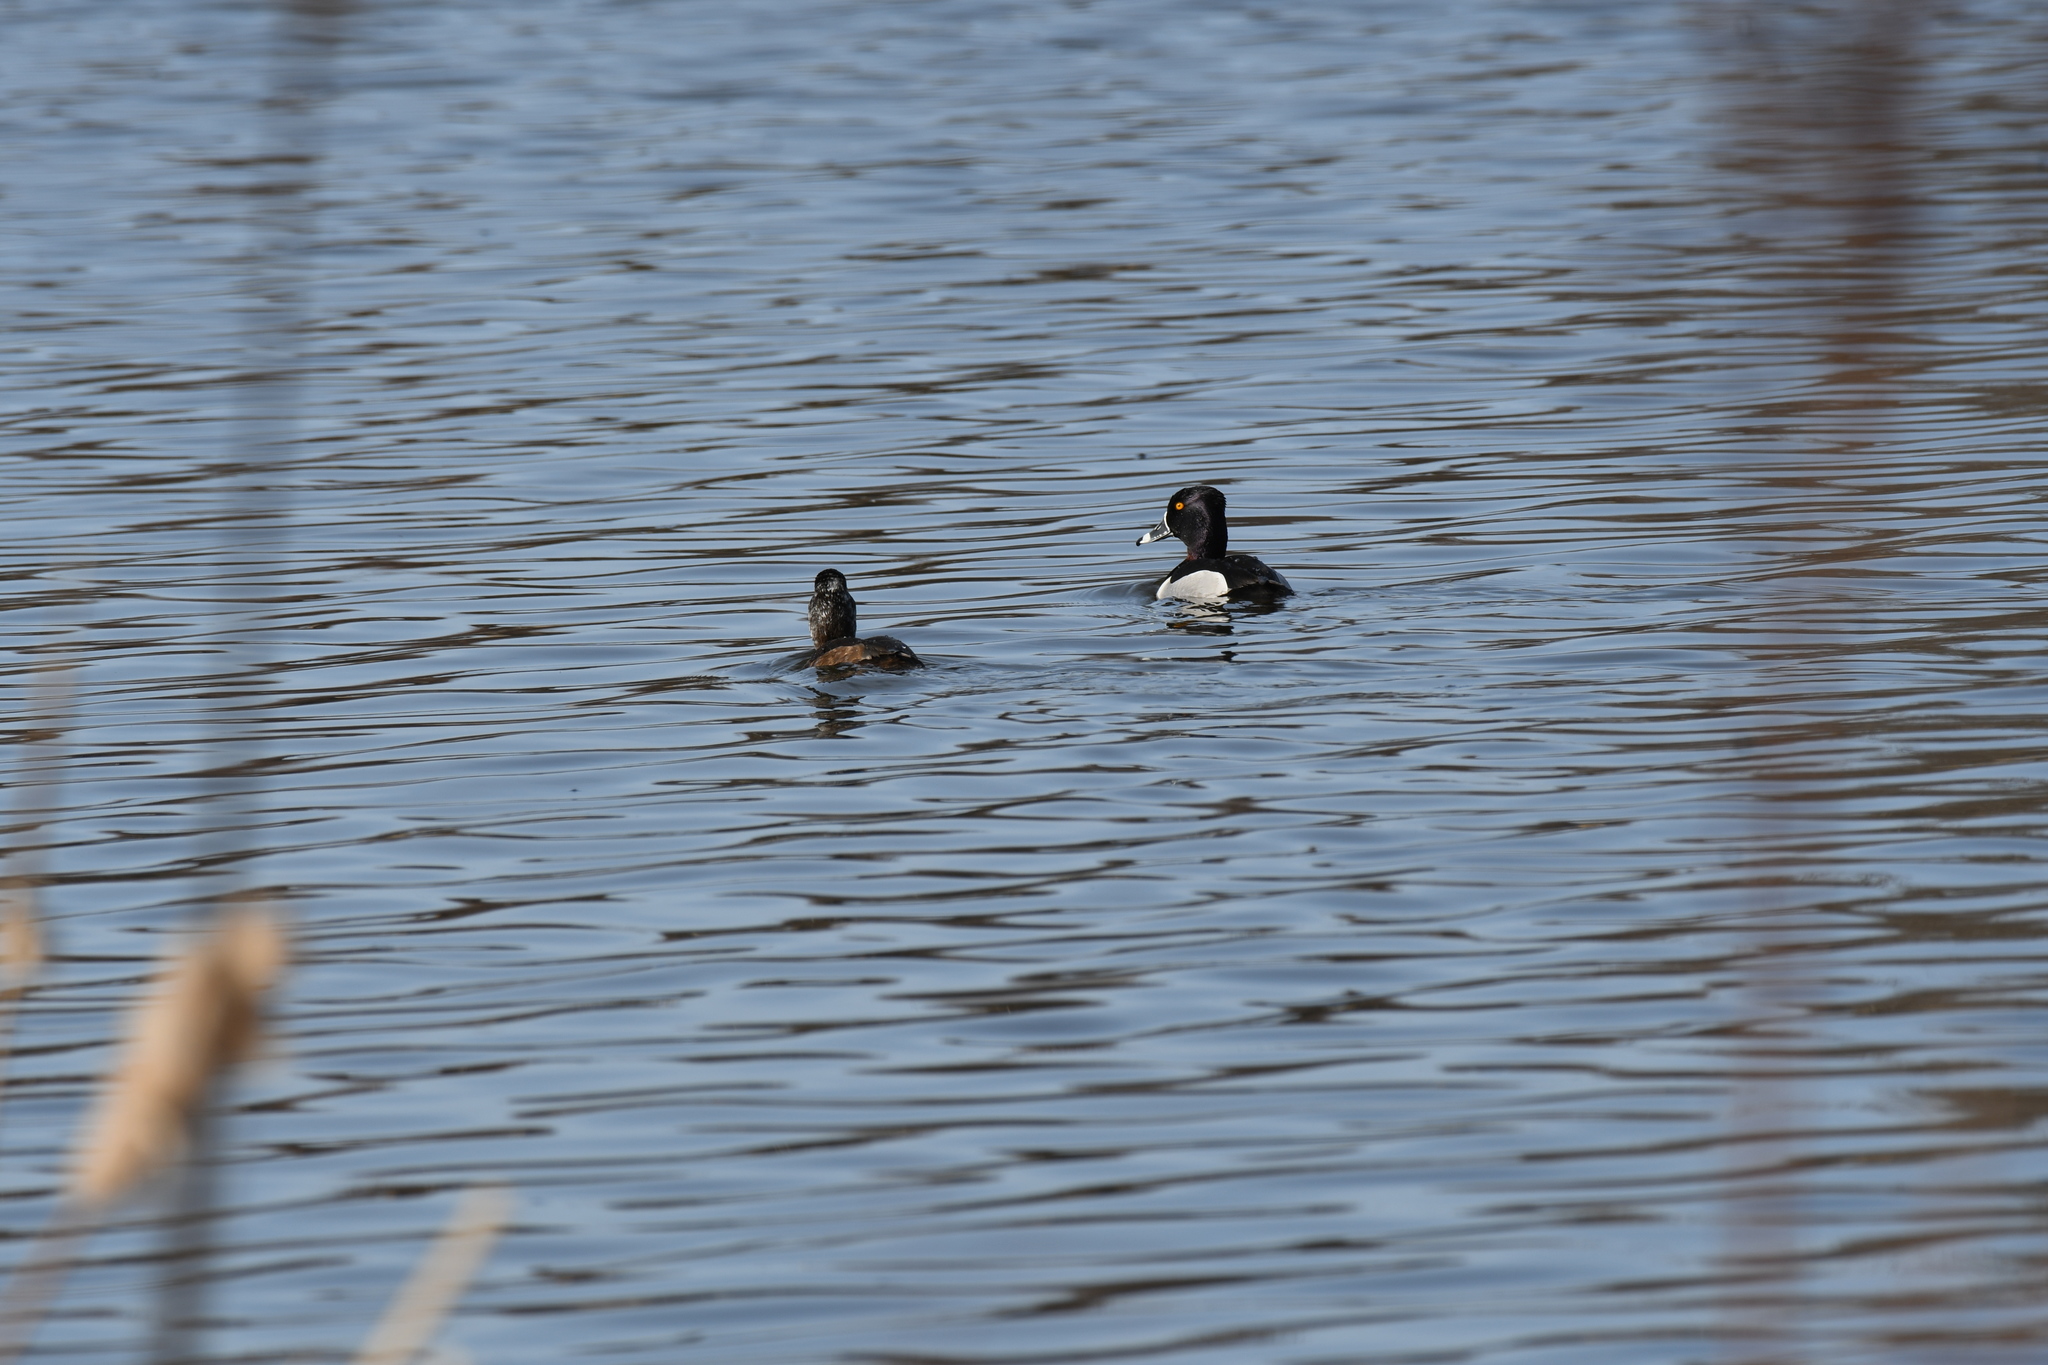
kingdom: Animalia
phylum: Chordata
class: Aves
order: Anseriformes
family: Anatidae
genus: Aythya
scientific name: Aythya collaris
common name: Ring-necked duck
